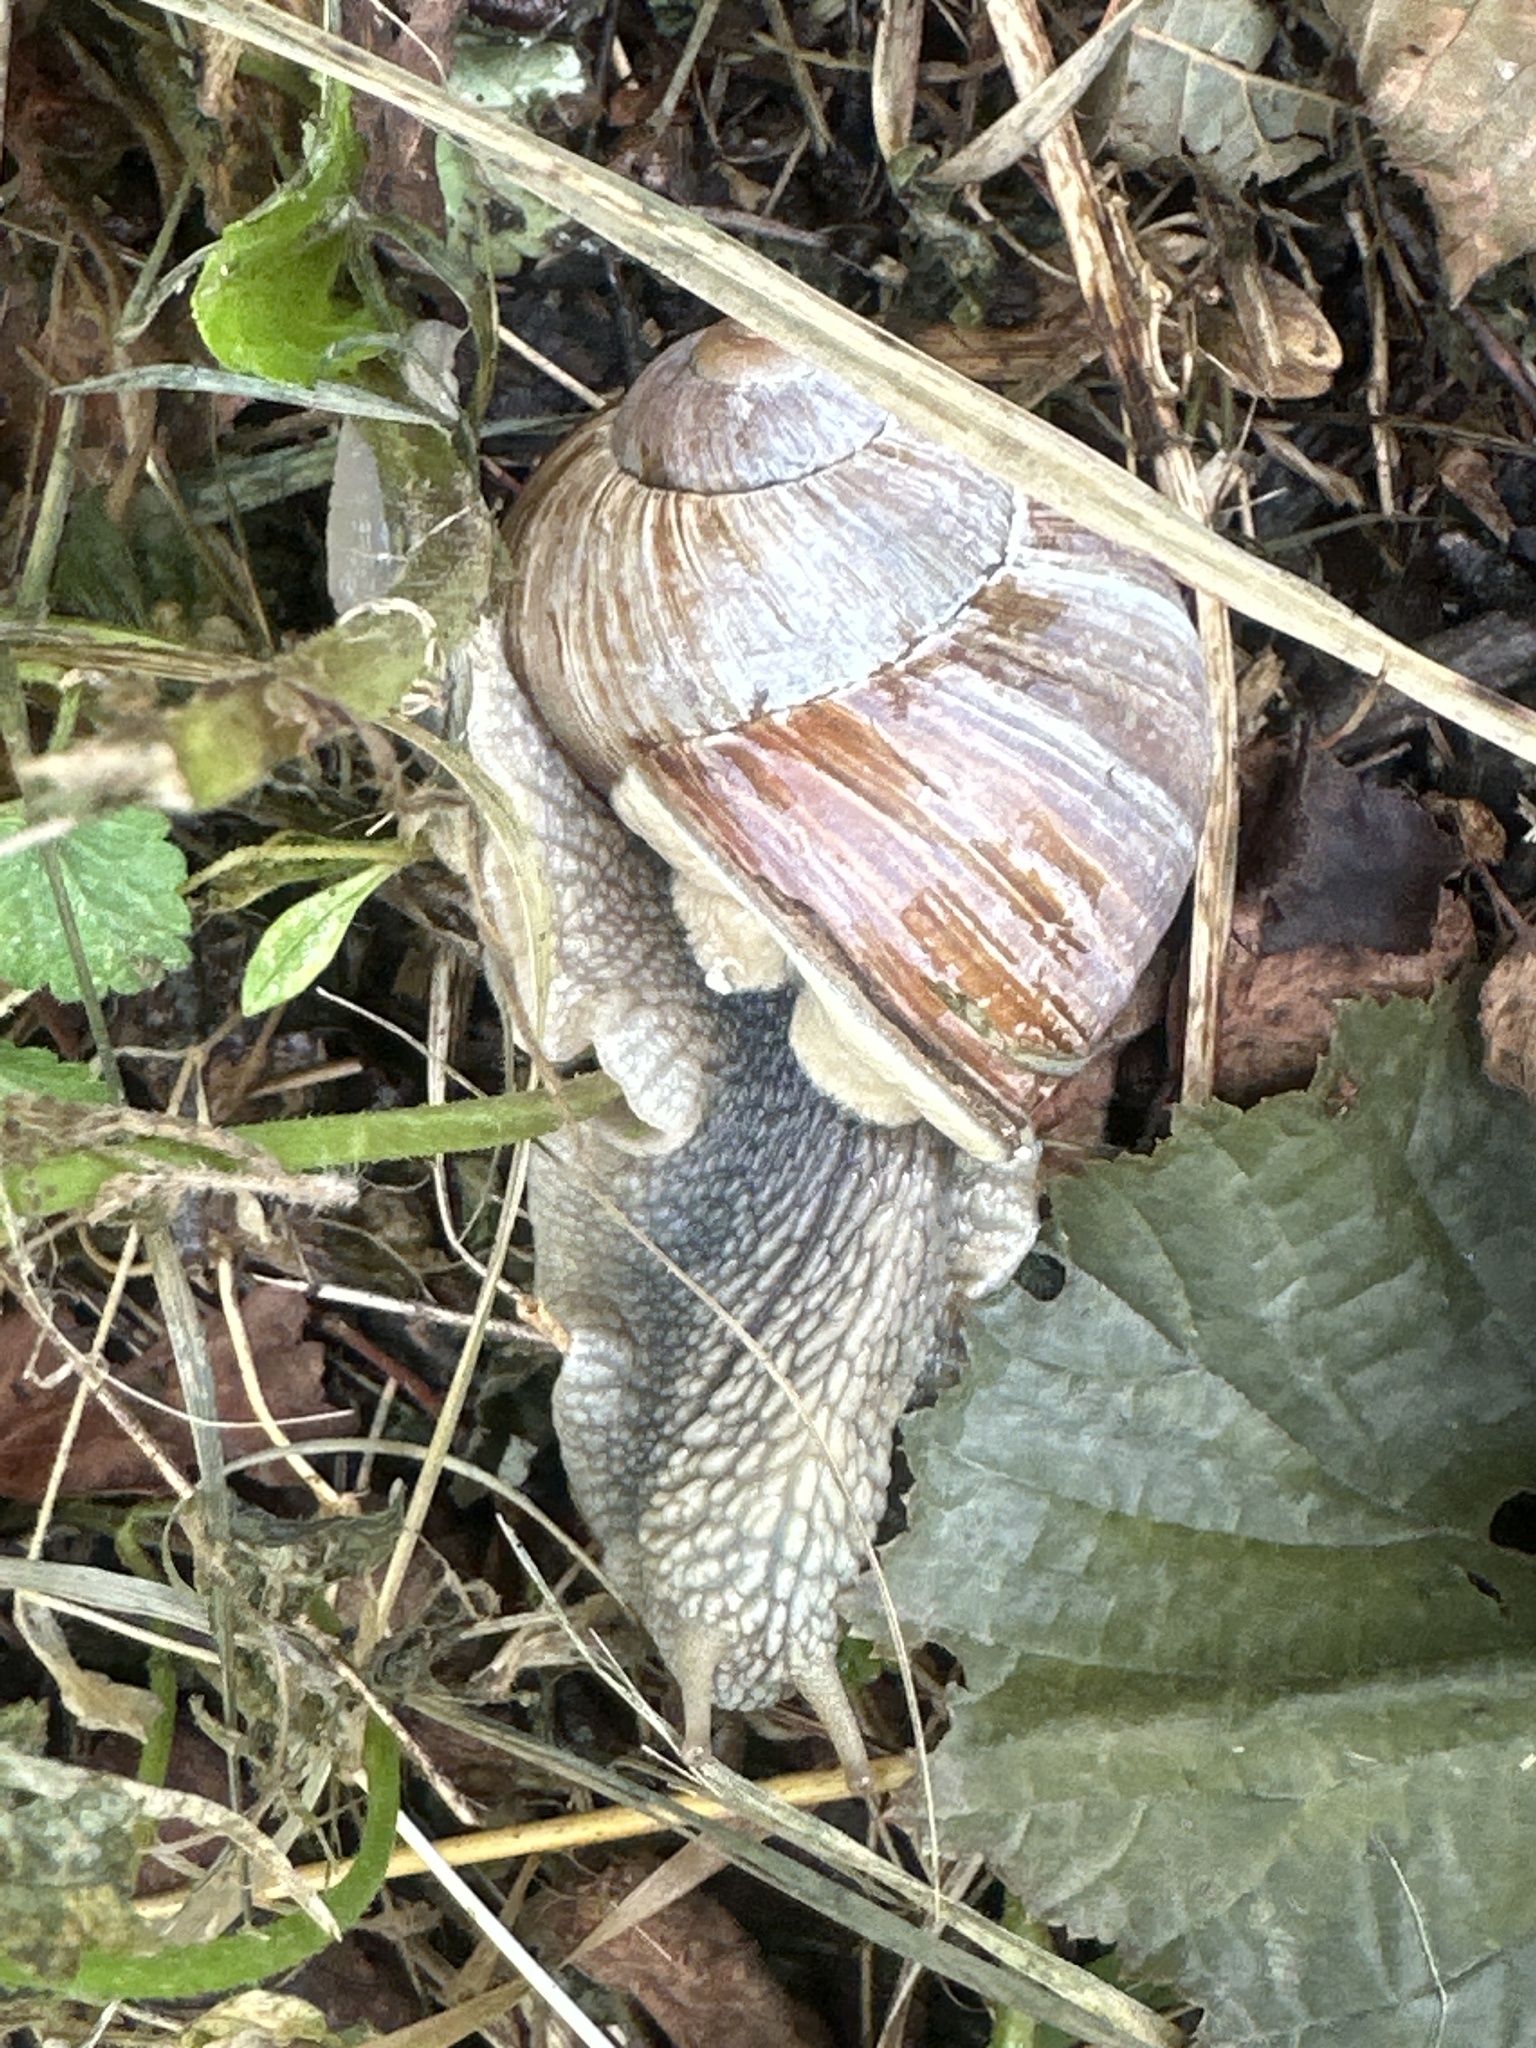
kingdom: Animalia
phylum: Mollusca
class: Gastropoda
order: Stylommatophora
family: Helicidae
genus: Helix
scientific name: Helix pomatia
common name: Roman snail
